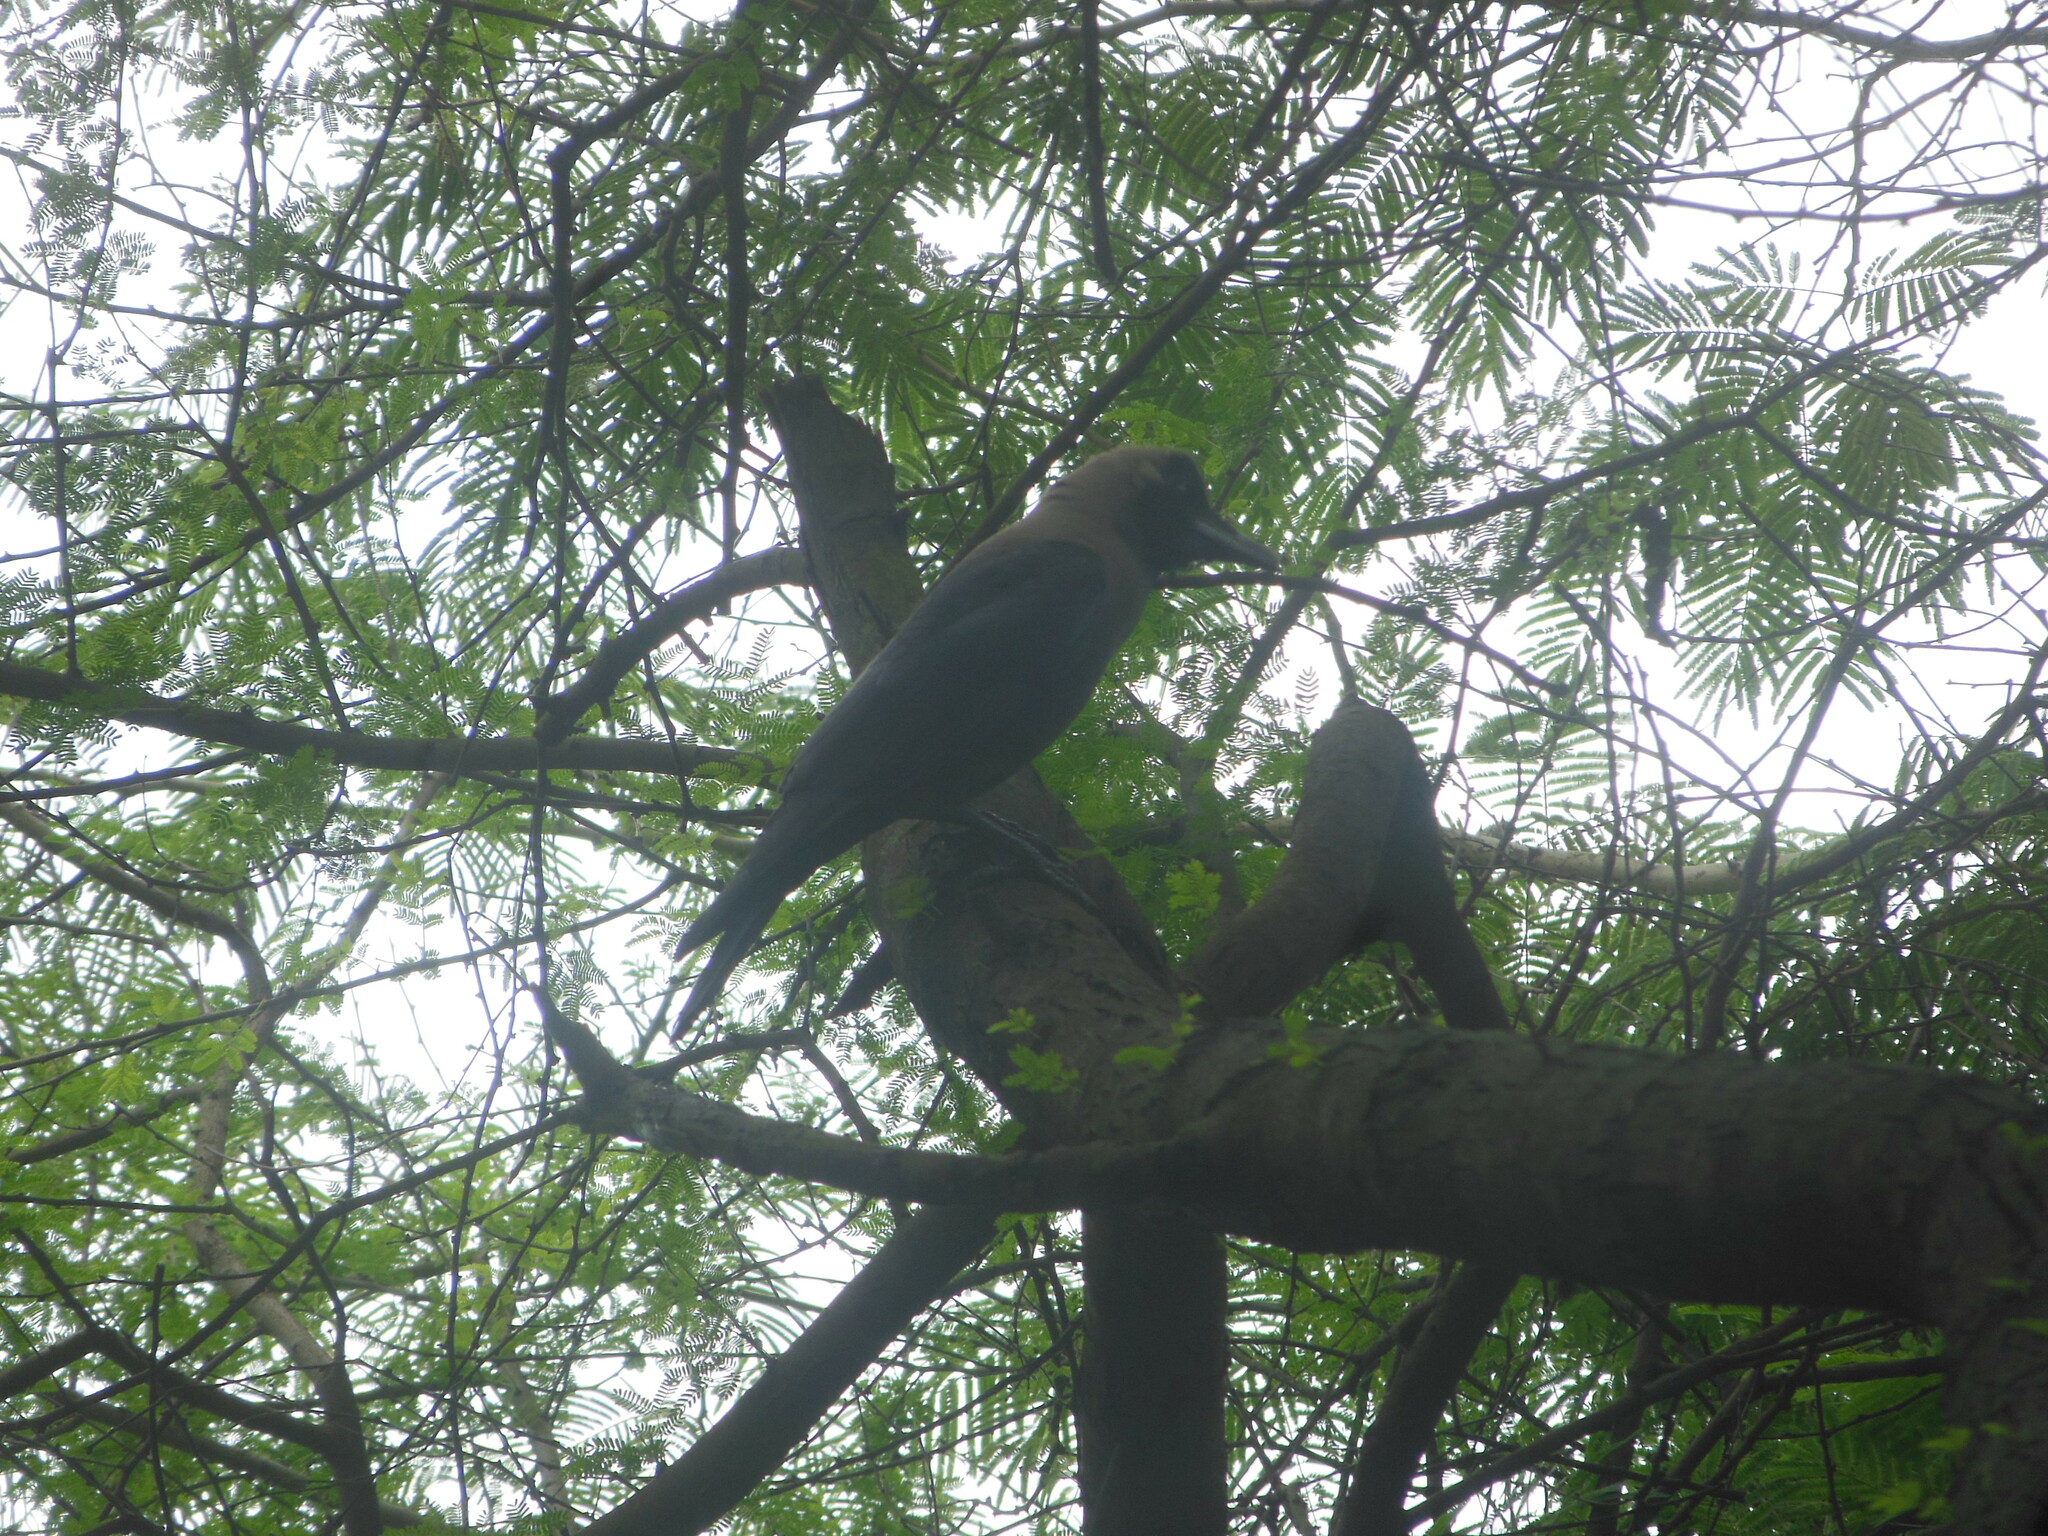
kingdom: Animalia
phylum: Chordata
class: Aves
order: Passeriformes
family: Corvidae
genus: Corvus
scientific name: Corvus splendens
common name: House crow
